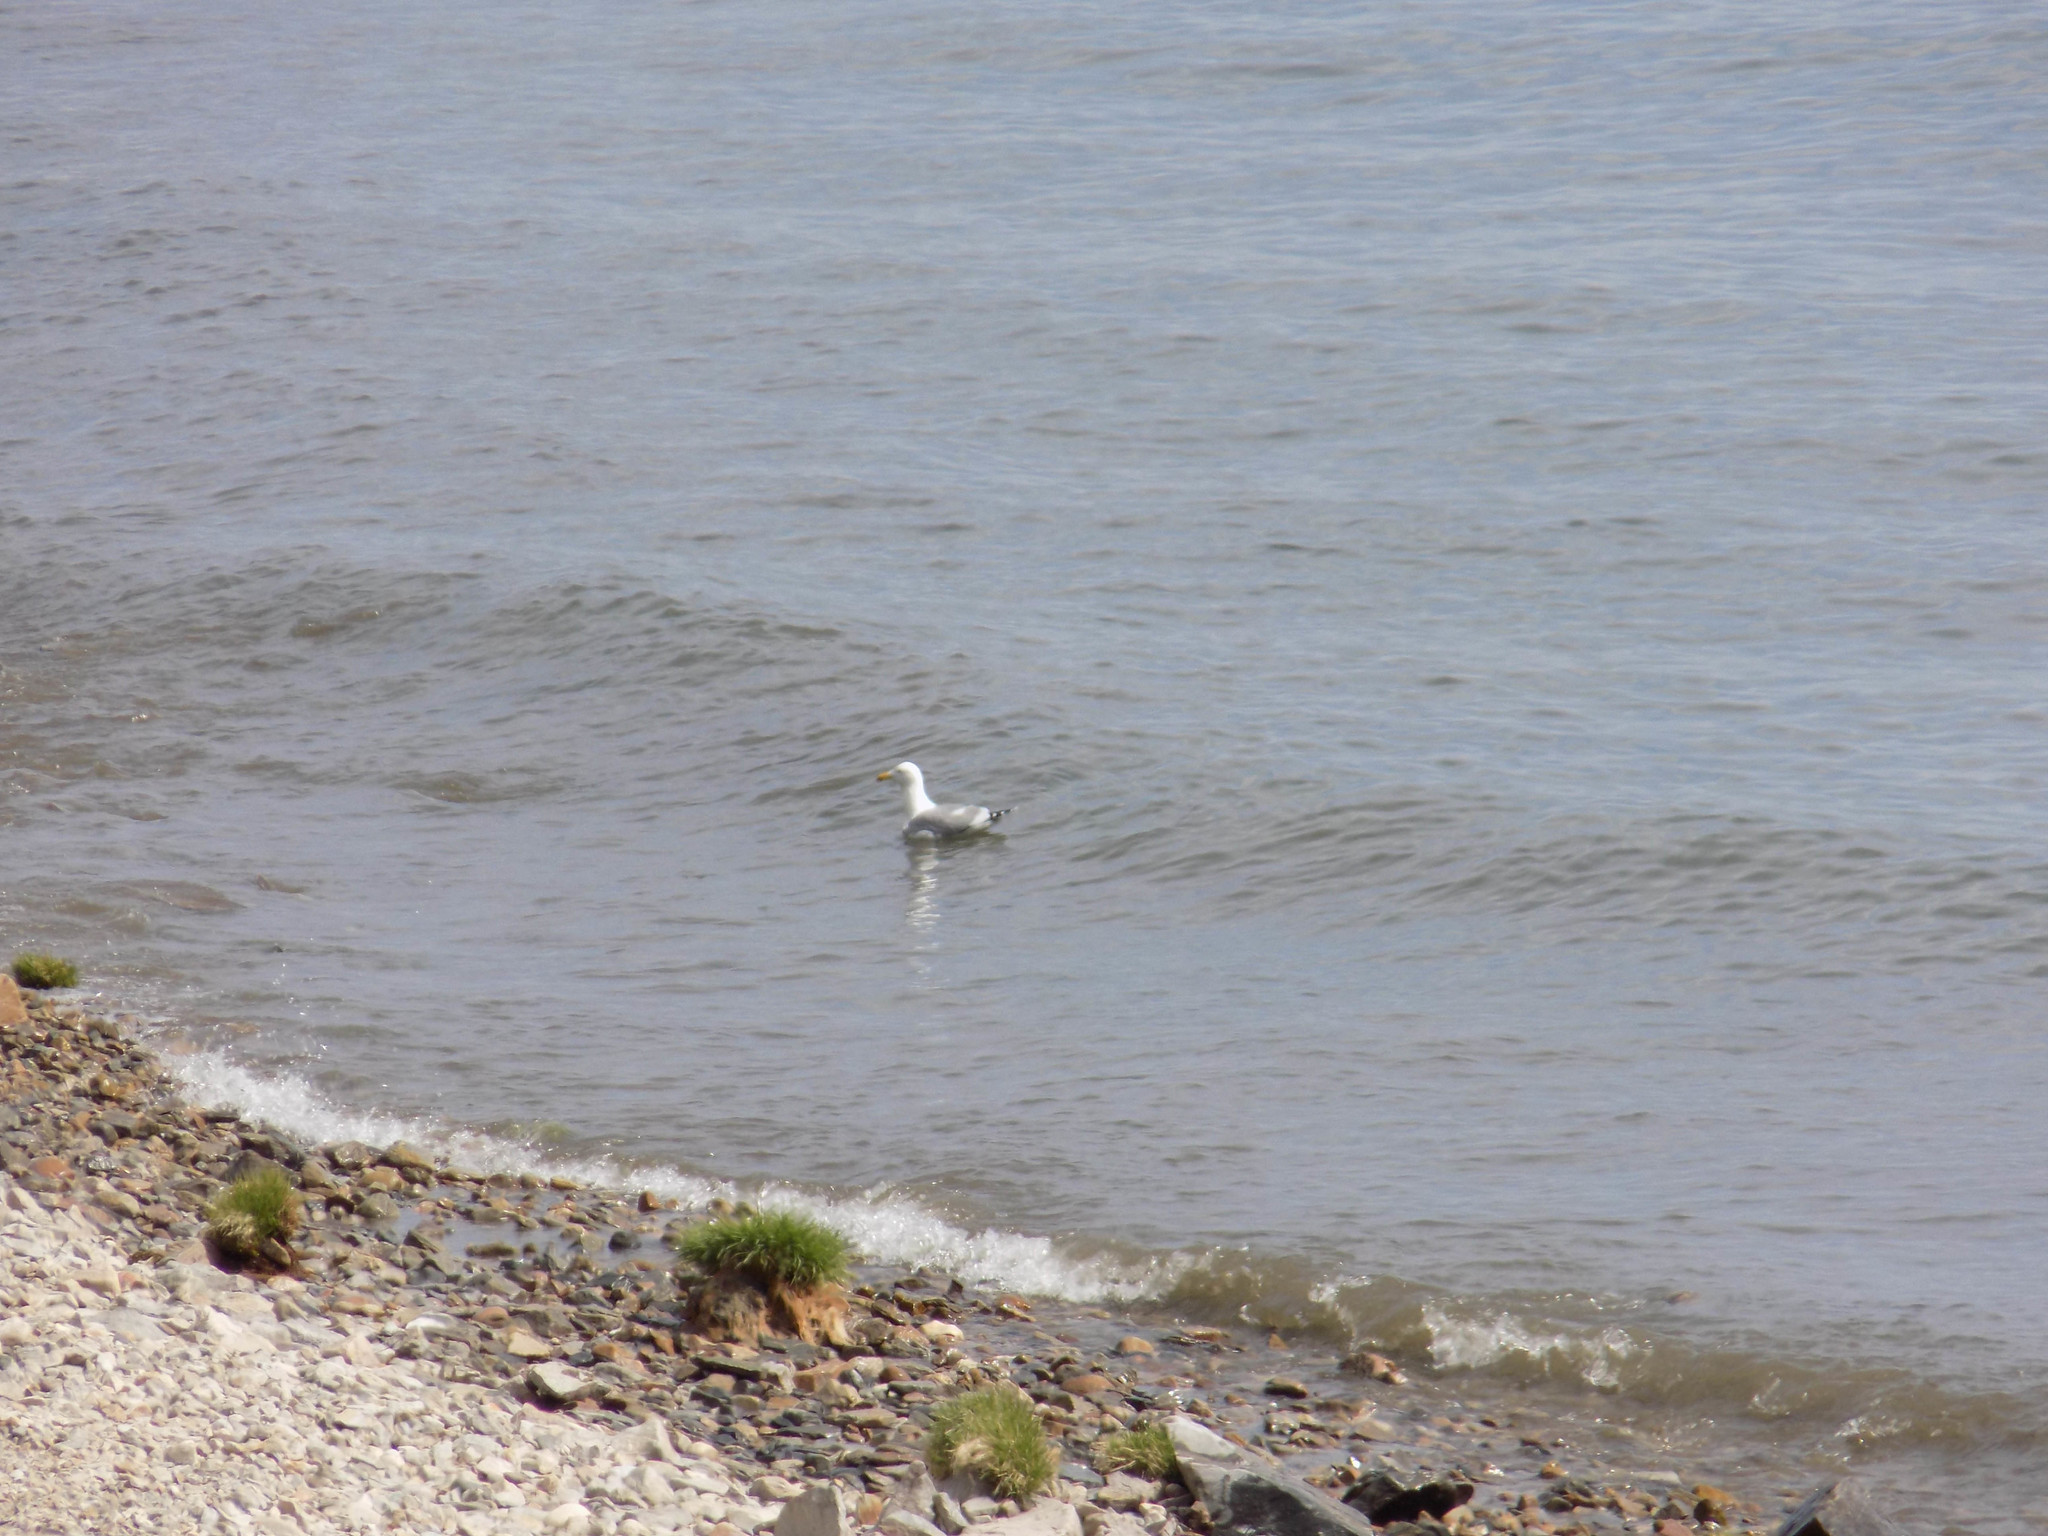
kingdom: Animalia
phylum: Chordata
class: Aves
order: Charadriiformes
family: Laridae
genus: Larus
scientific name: Larus vegae
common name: Vega gull
